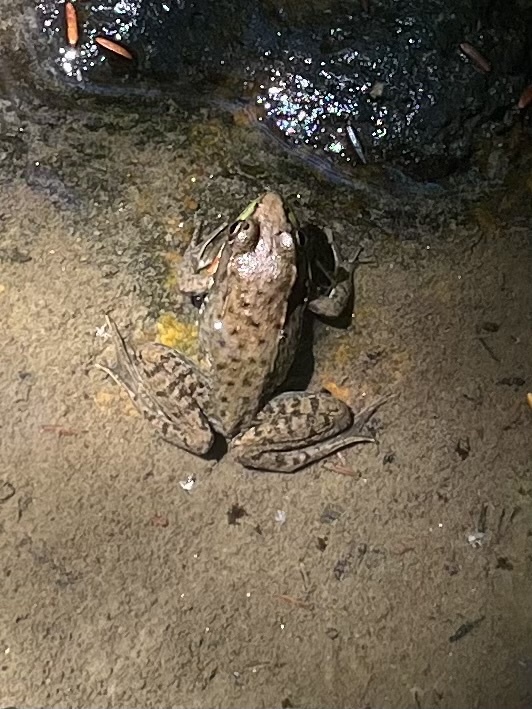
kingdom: Animalia
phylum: Chordata
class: Amphibia
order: Anura
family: Ranidae
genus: Lithobates
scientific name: Lithobates clamitans
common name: Green frog
